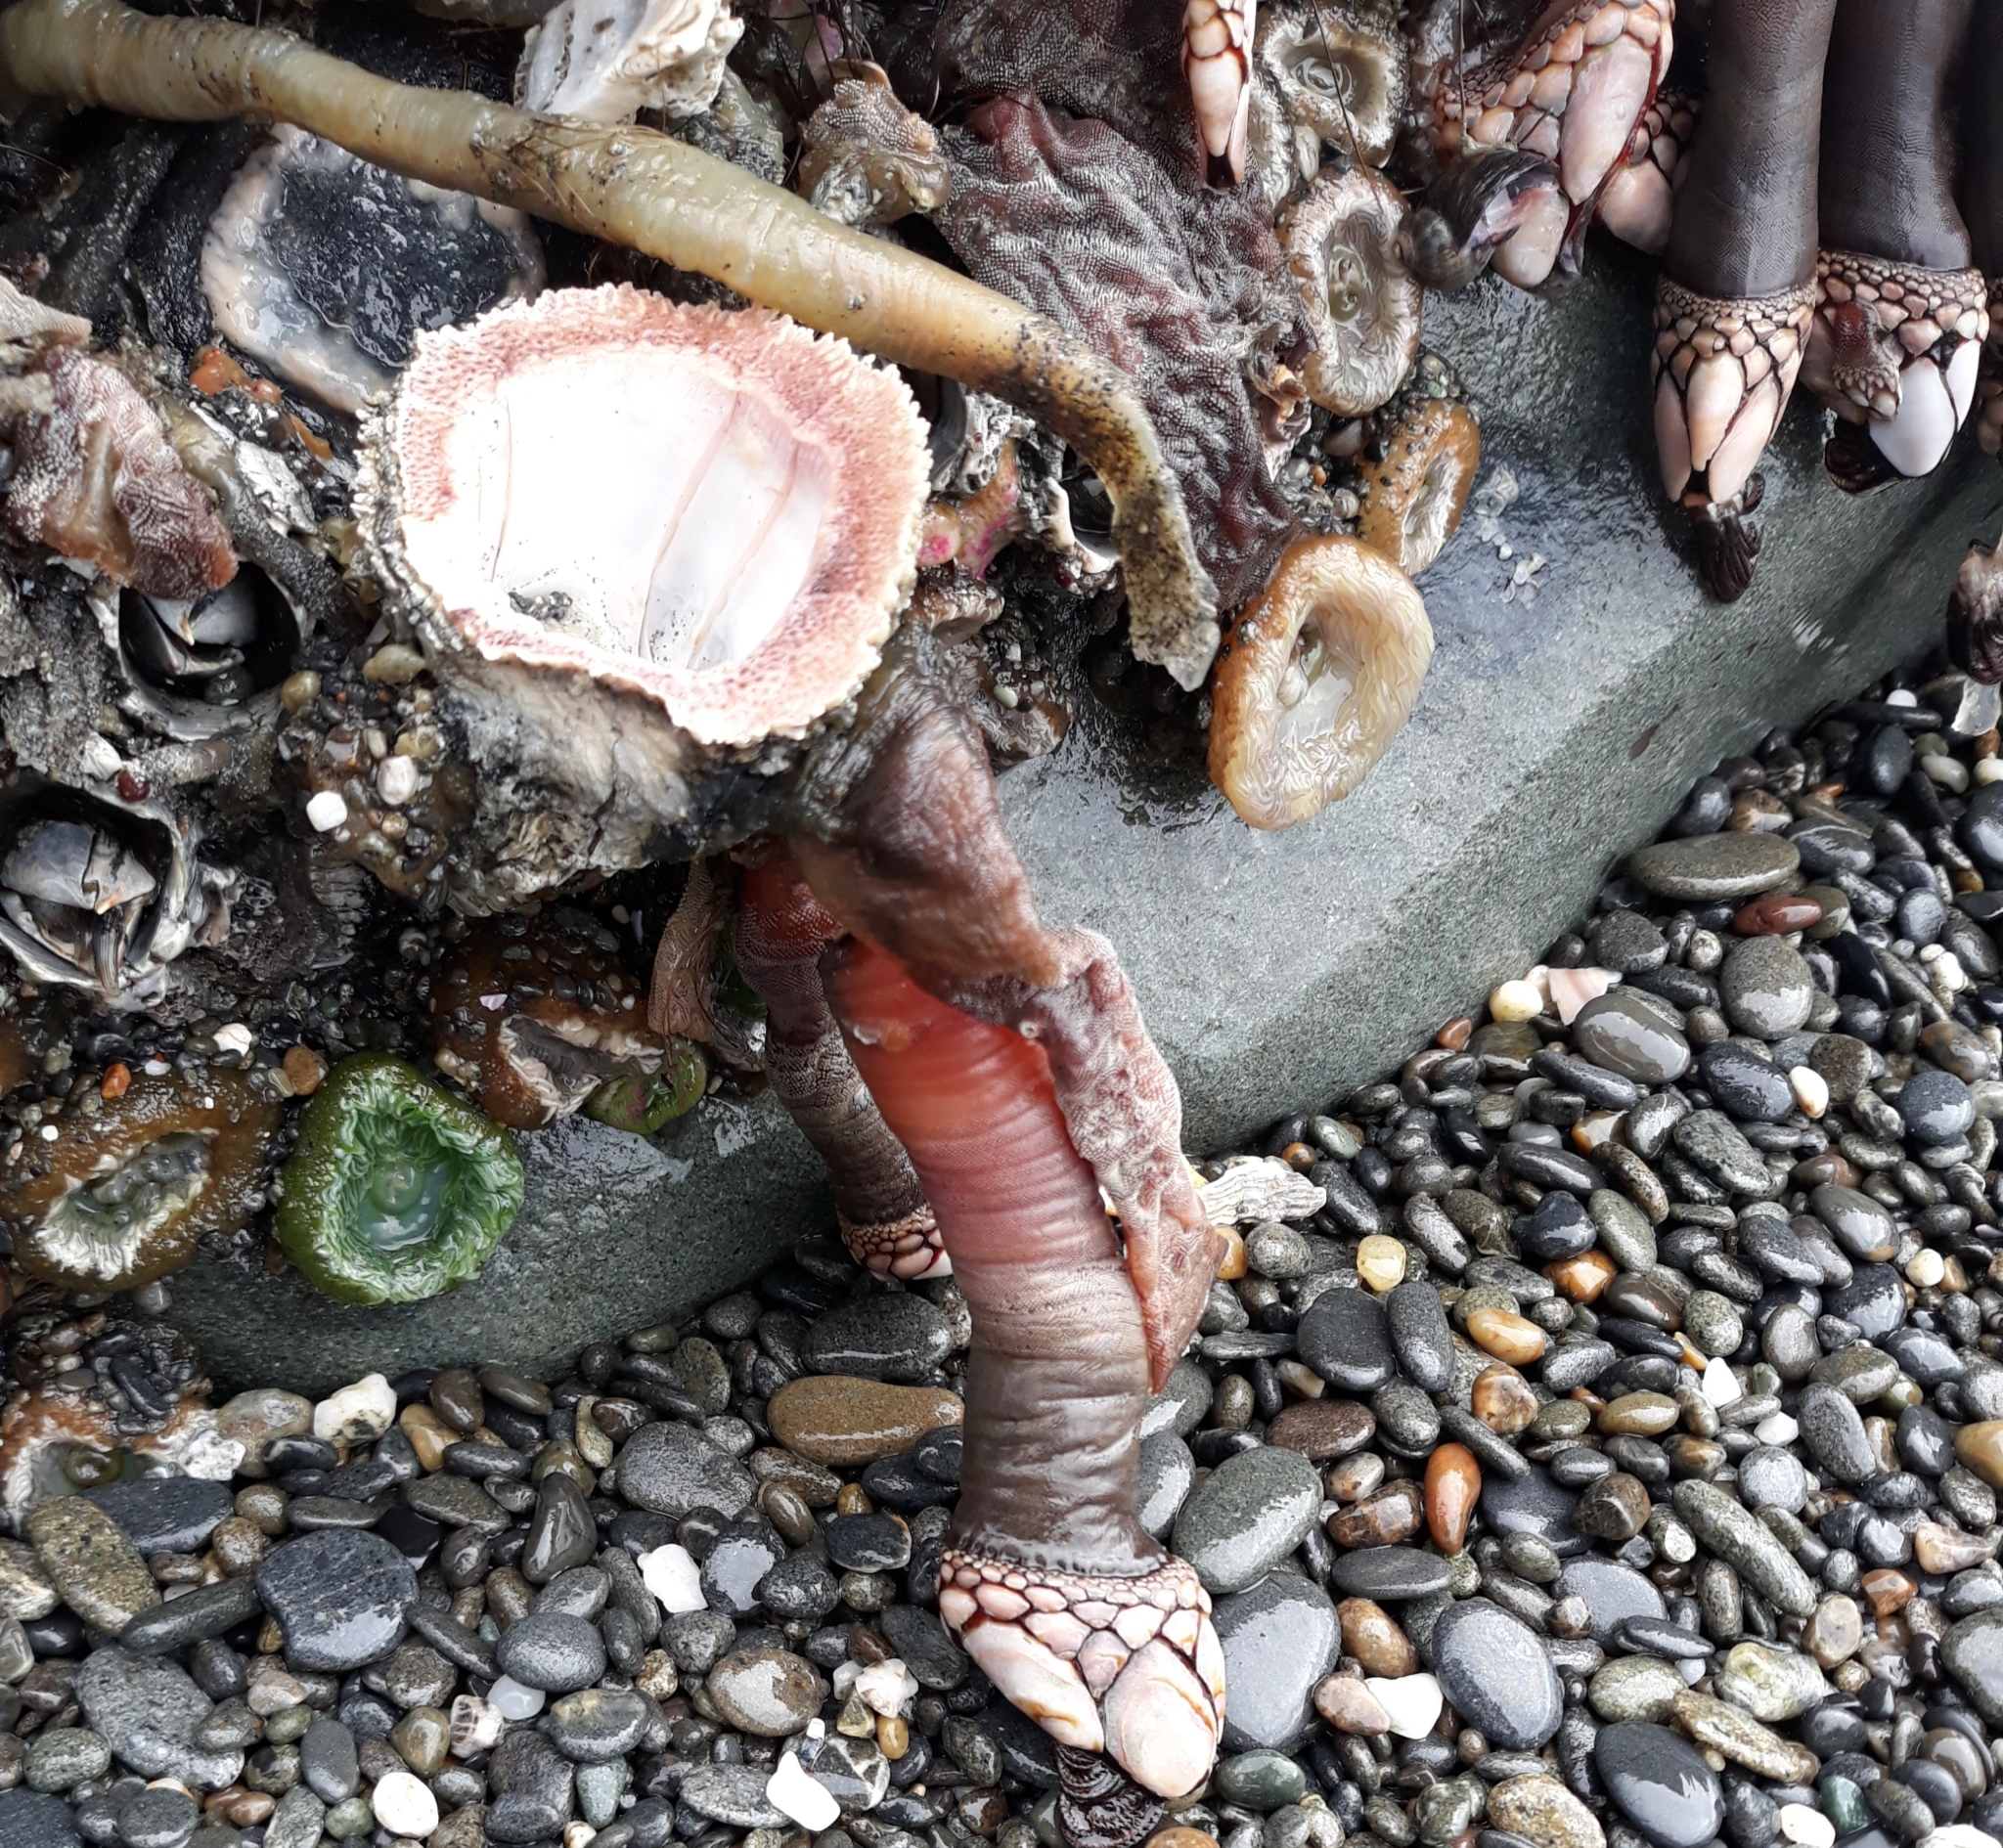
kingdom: Animalia
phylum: Arthropoda
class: Maxillopoda
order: Pedunculata
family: Pollicipedidae
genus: Pollicipes
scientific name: Pollicipes polymerus
